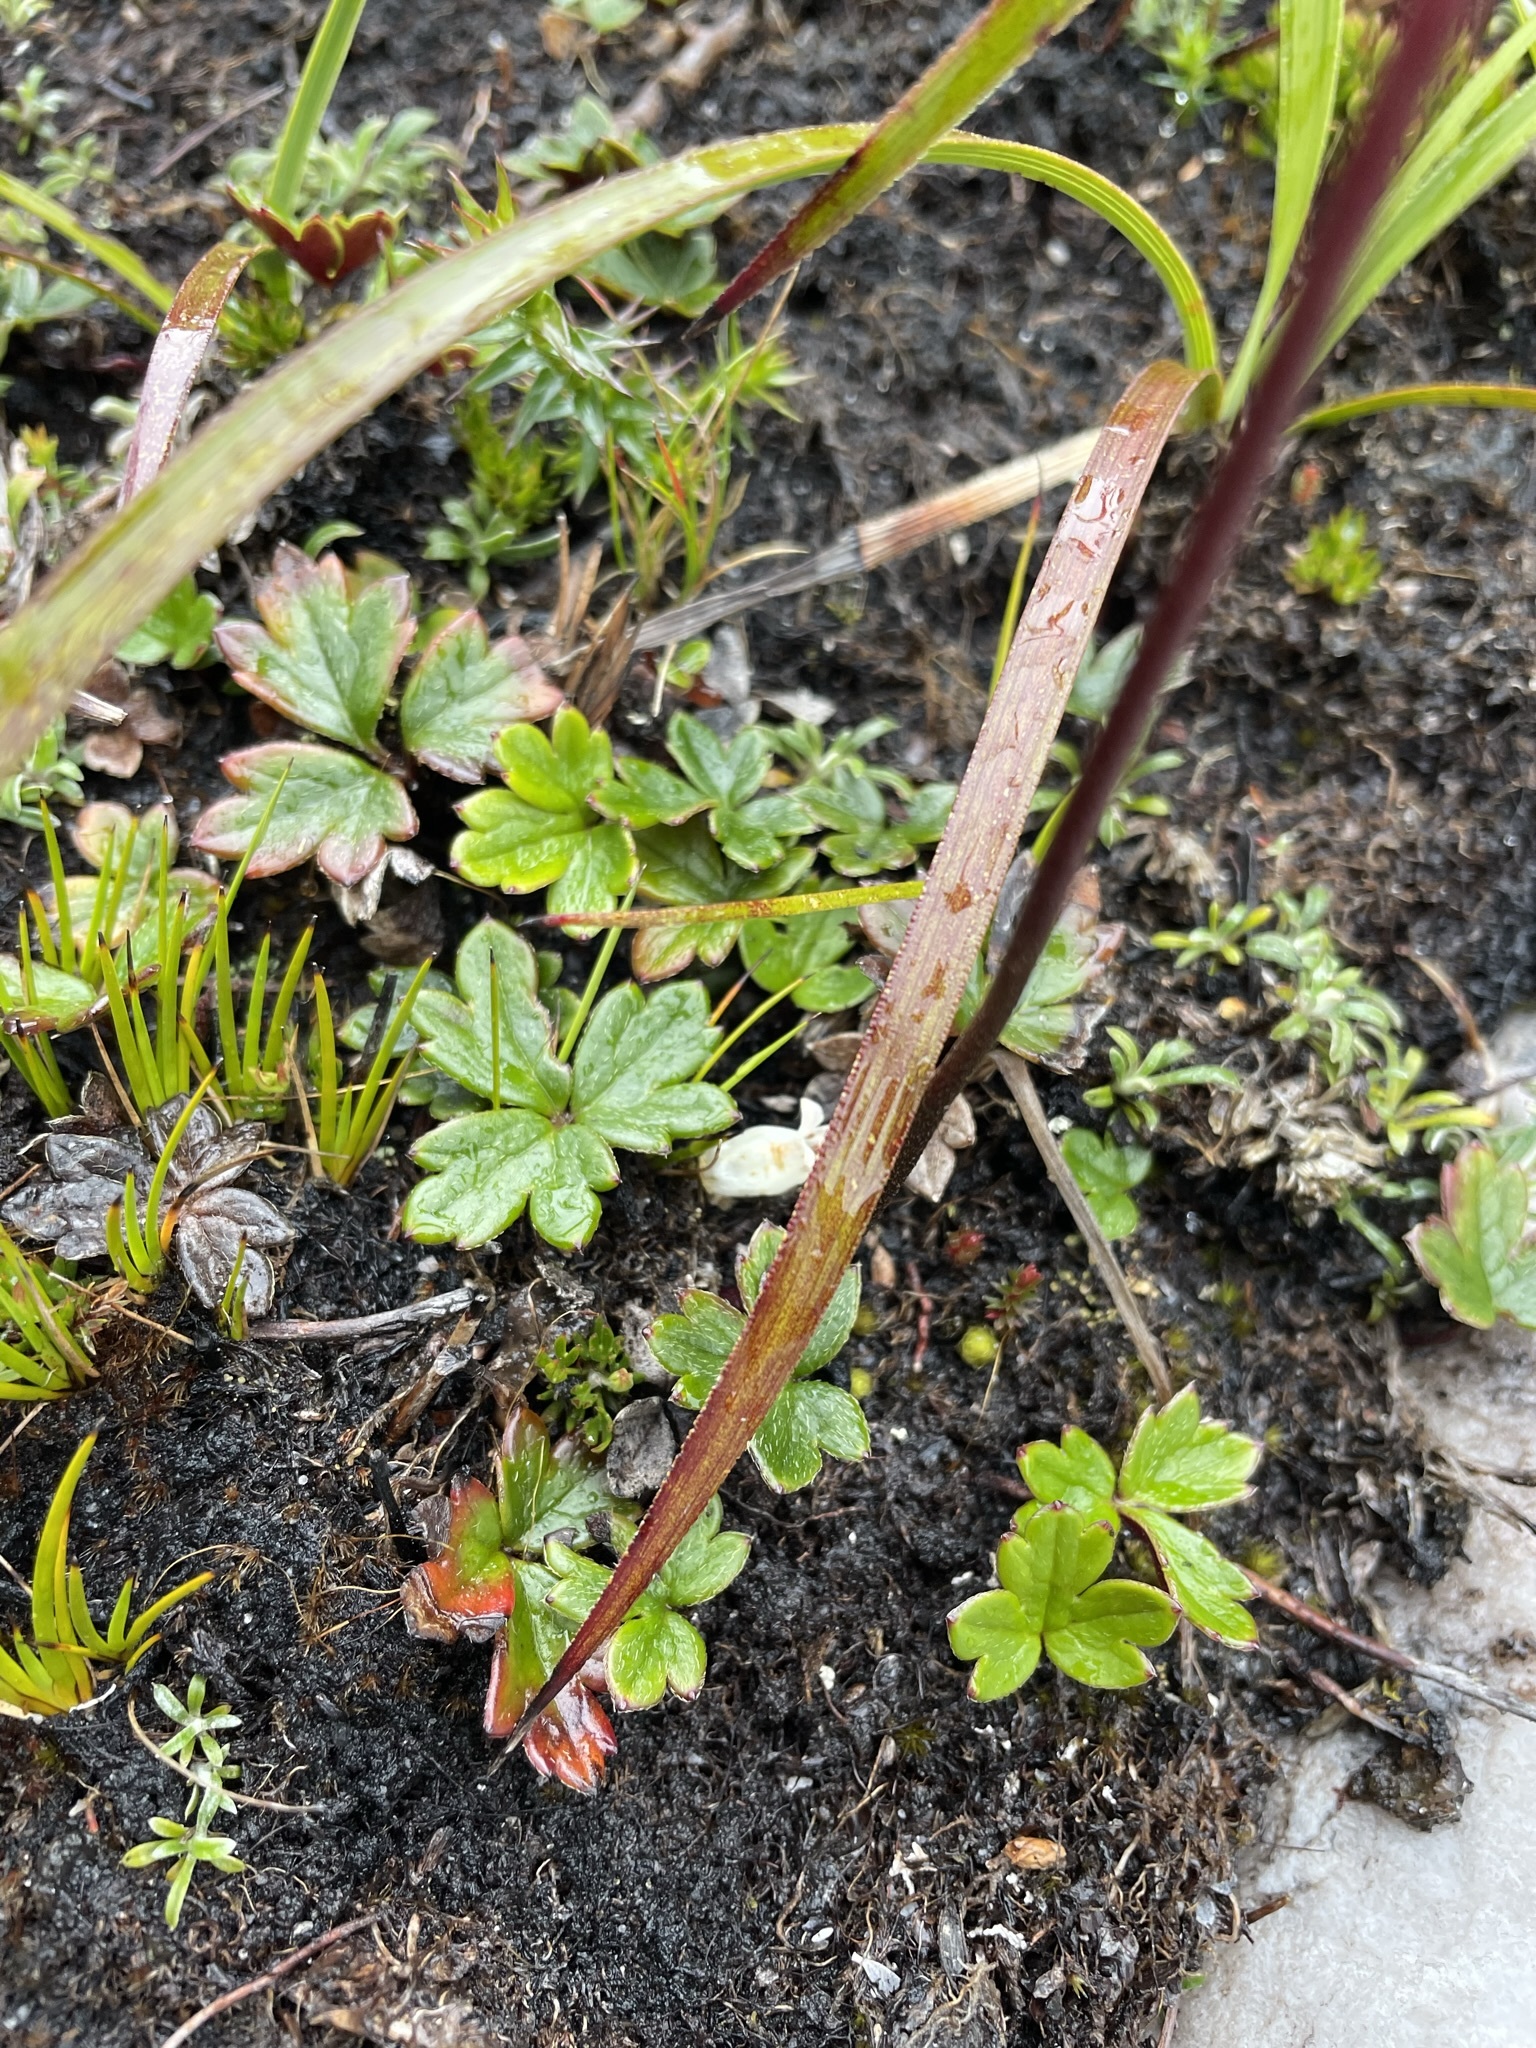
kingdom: Plantae
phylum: Tracheophyta
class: Magnoliopsida
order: Ranunculales
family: Ranunculaceae
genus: Knowltonia
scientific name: Knowltonia crassifolia
